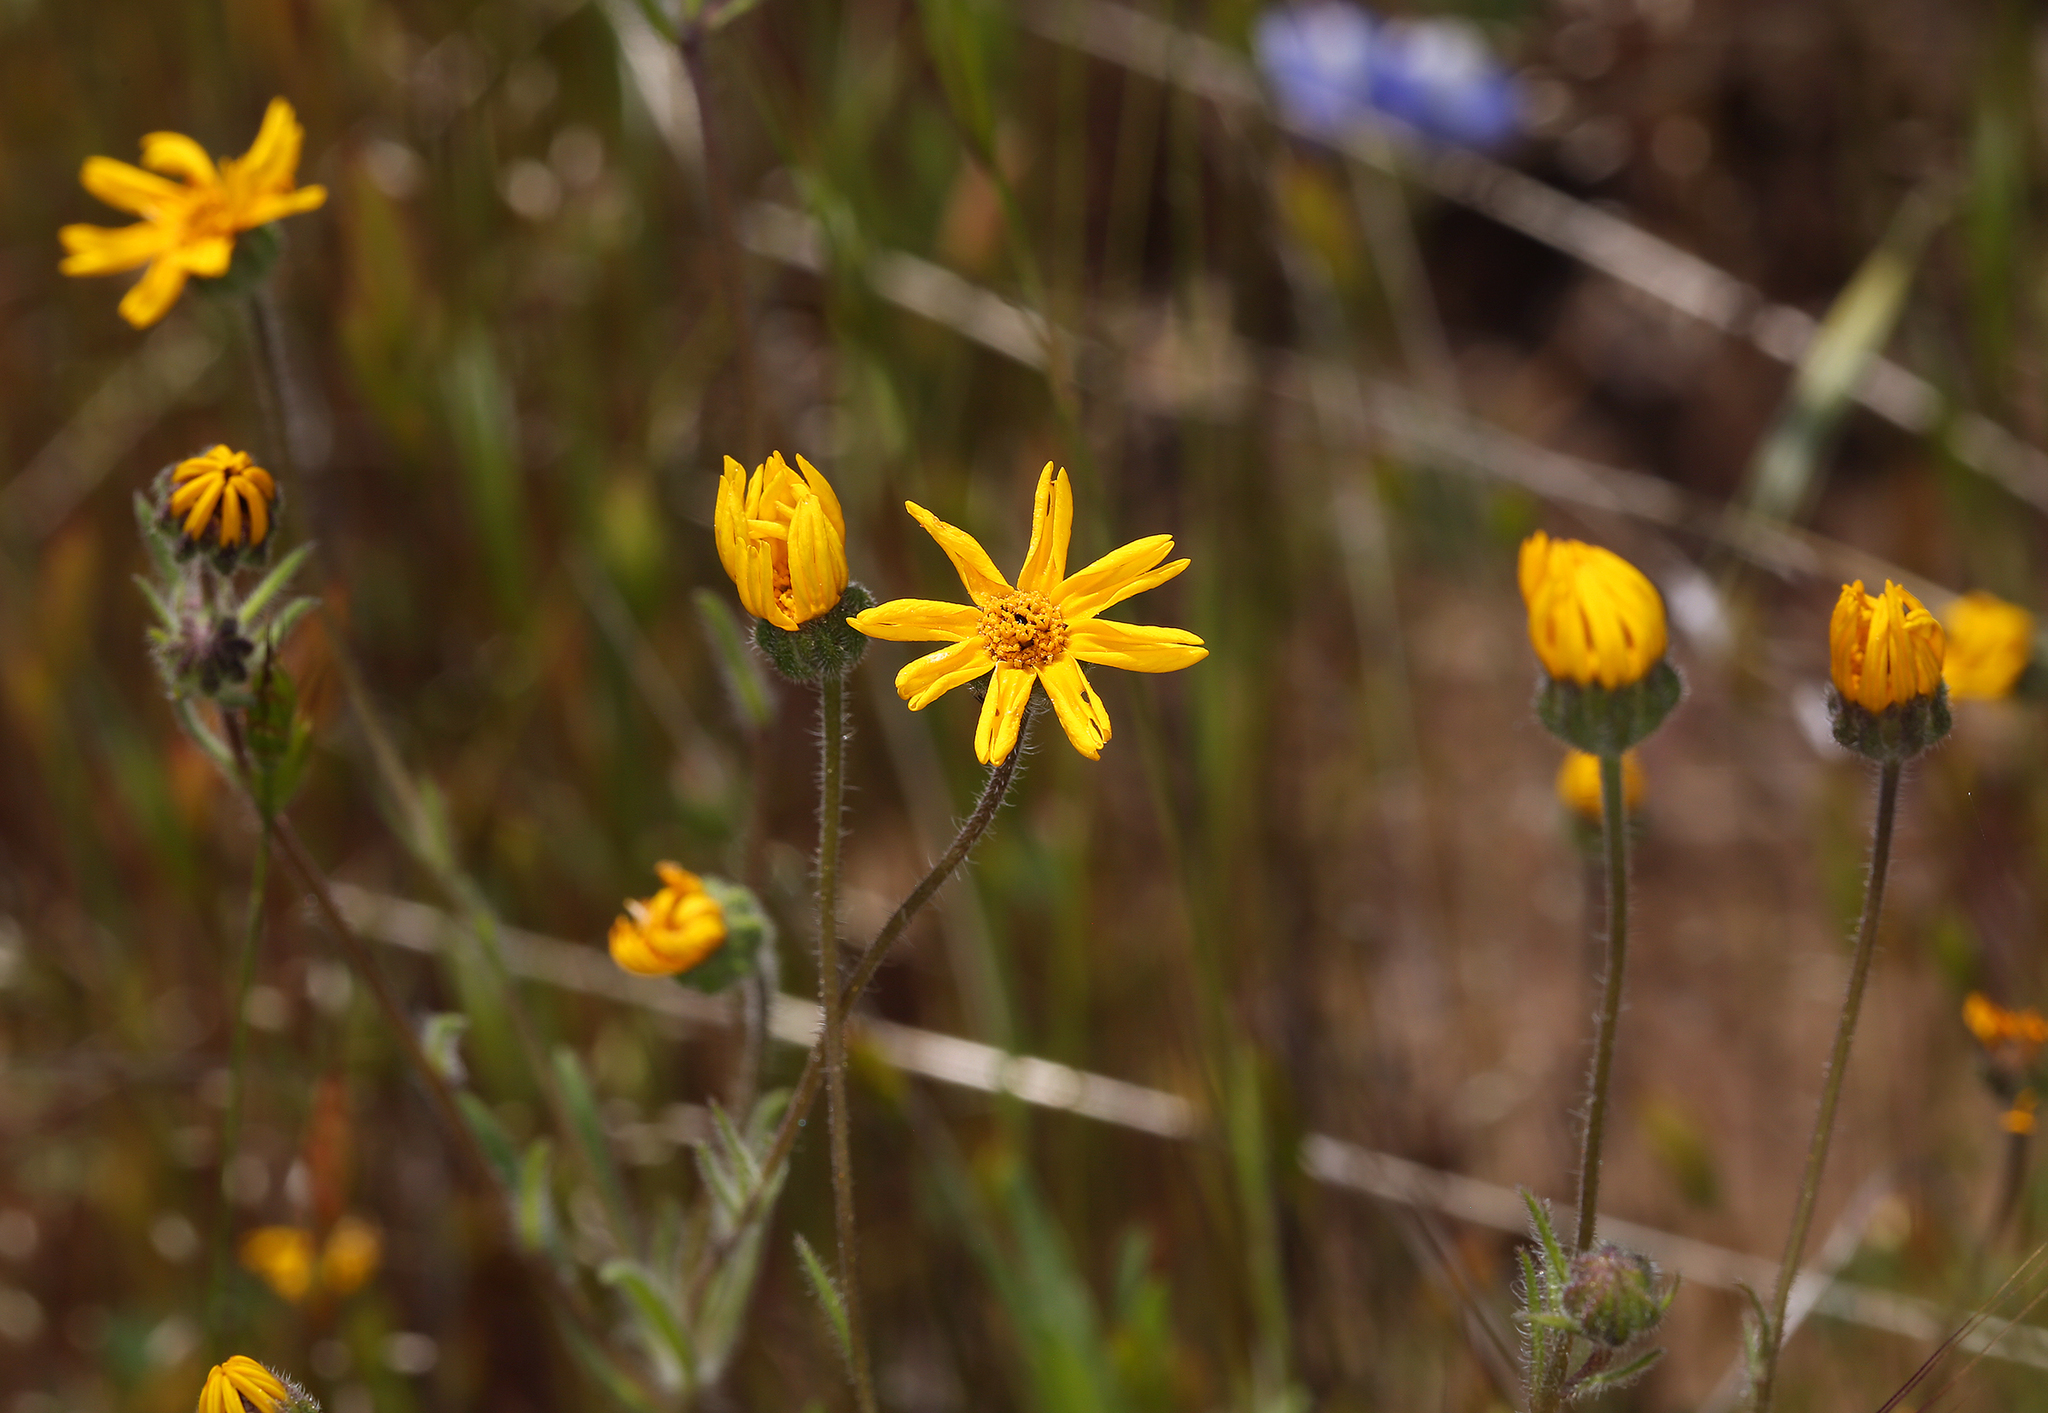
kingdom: Plantae
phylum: Tracheophyta
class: Magnoliopsida
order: Asterales
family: Asteraceae
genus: Jensia
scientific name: Jensia rammii
